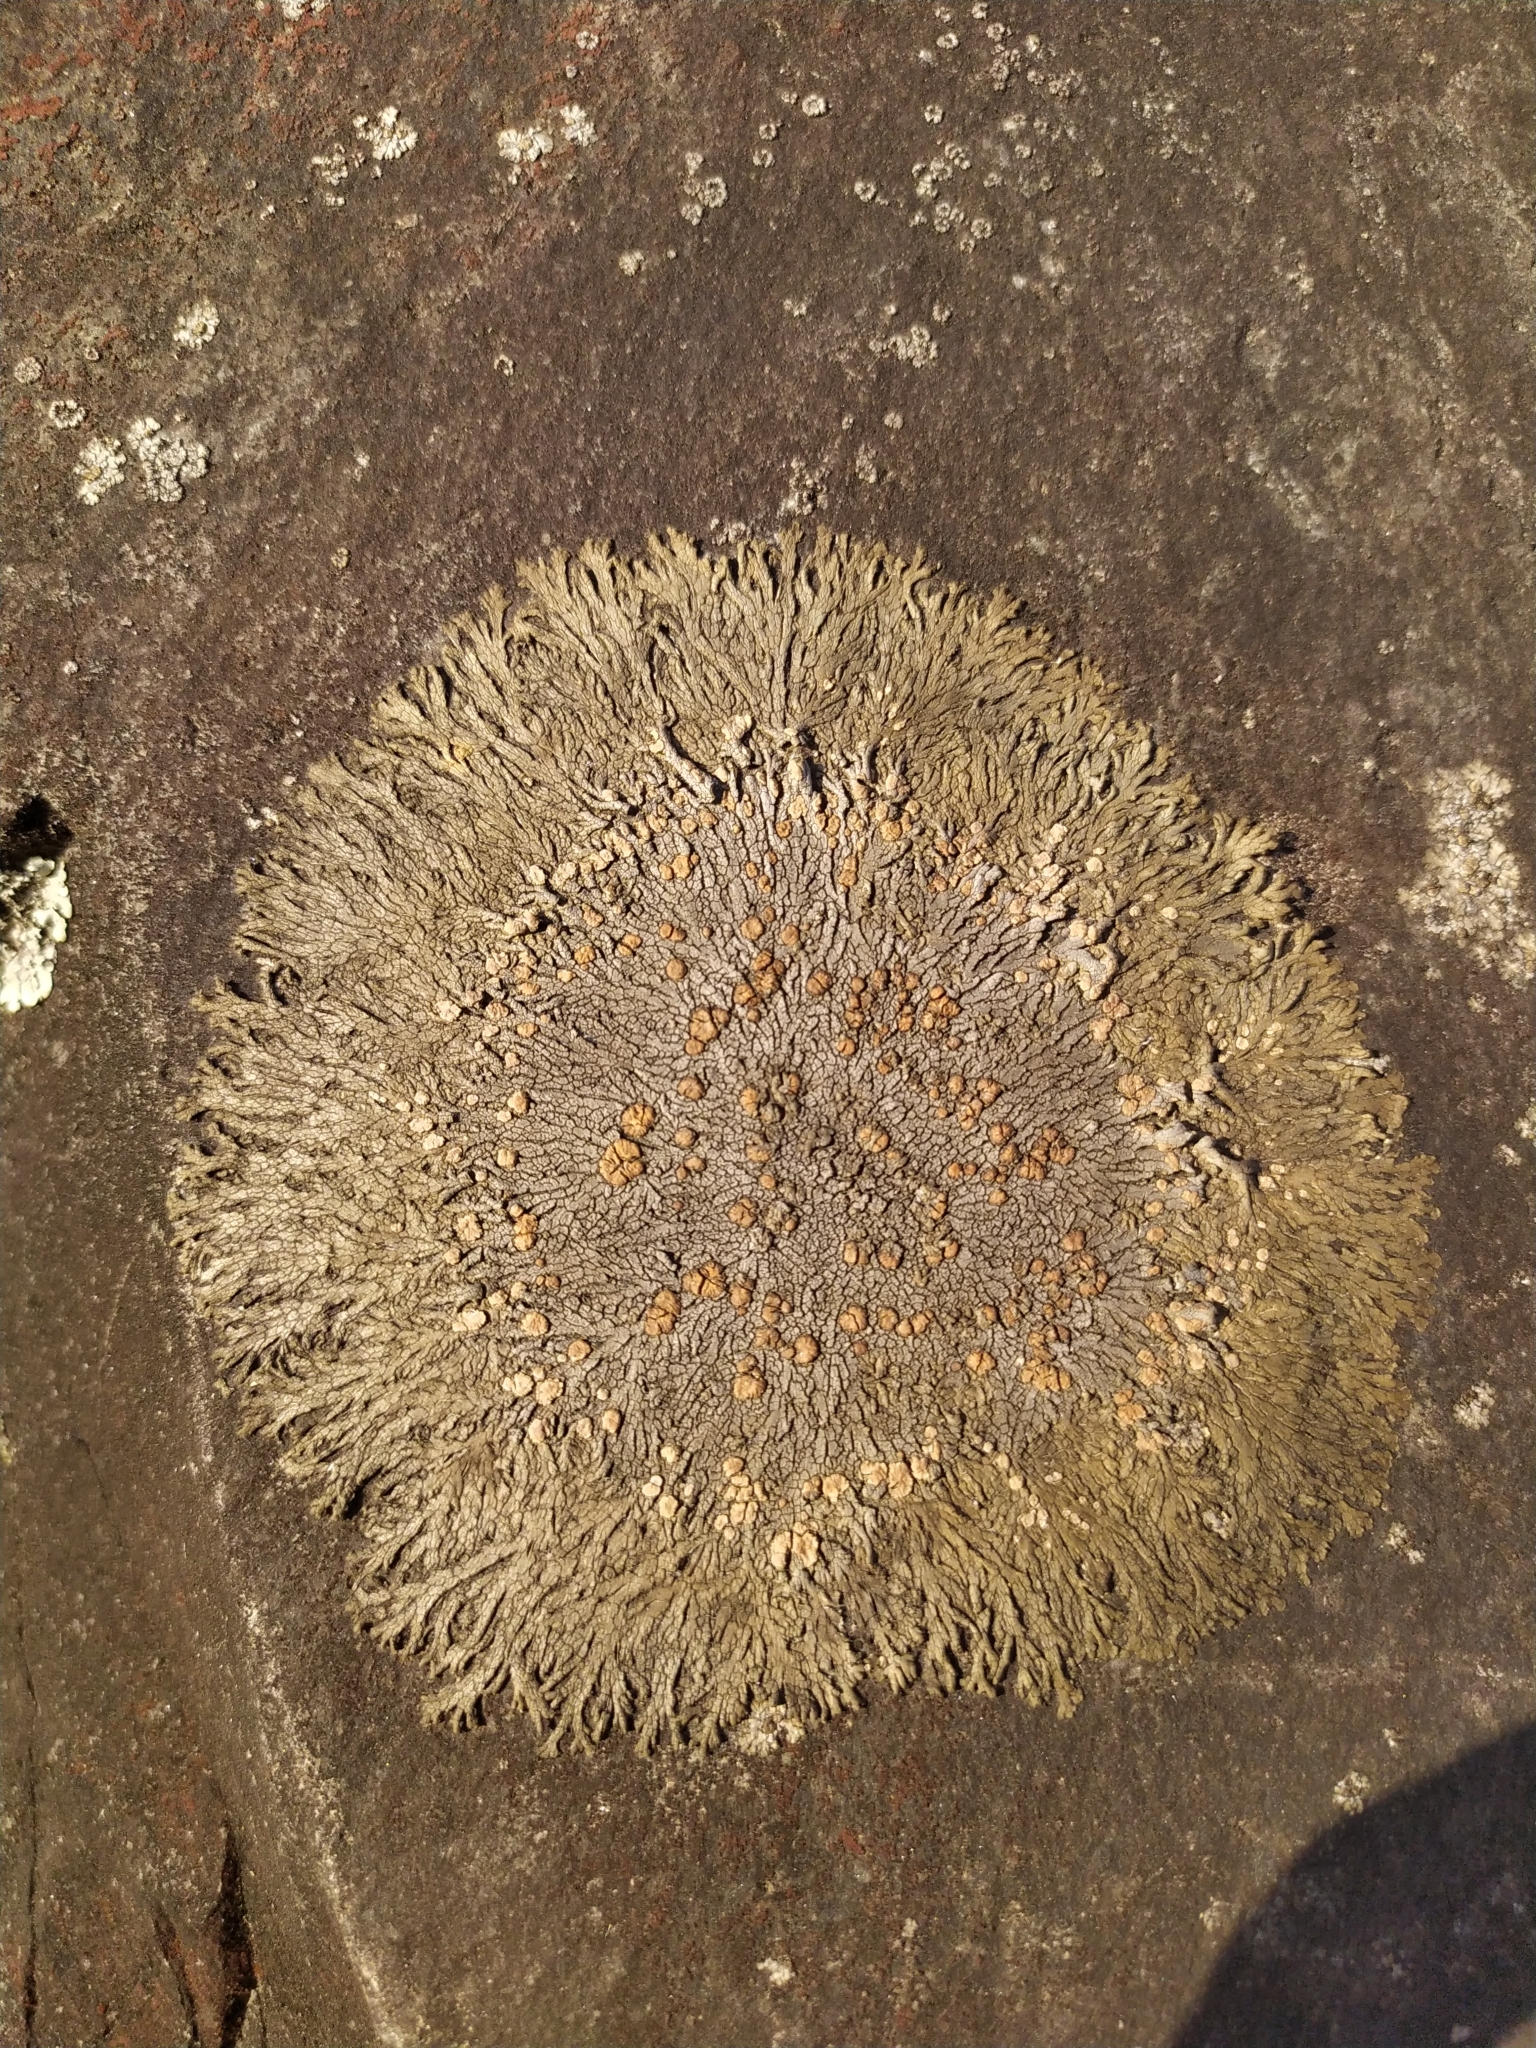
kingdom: Fungi
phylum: Ascomycota
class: Lecanoromycetes
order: Baeomycetales
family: Trapeliaceae
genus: Placopsis
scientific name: Placopsis perrugosa
